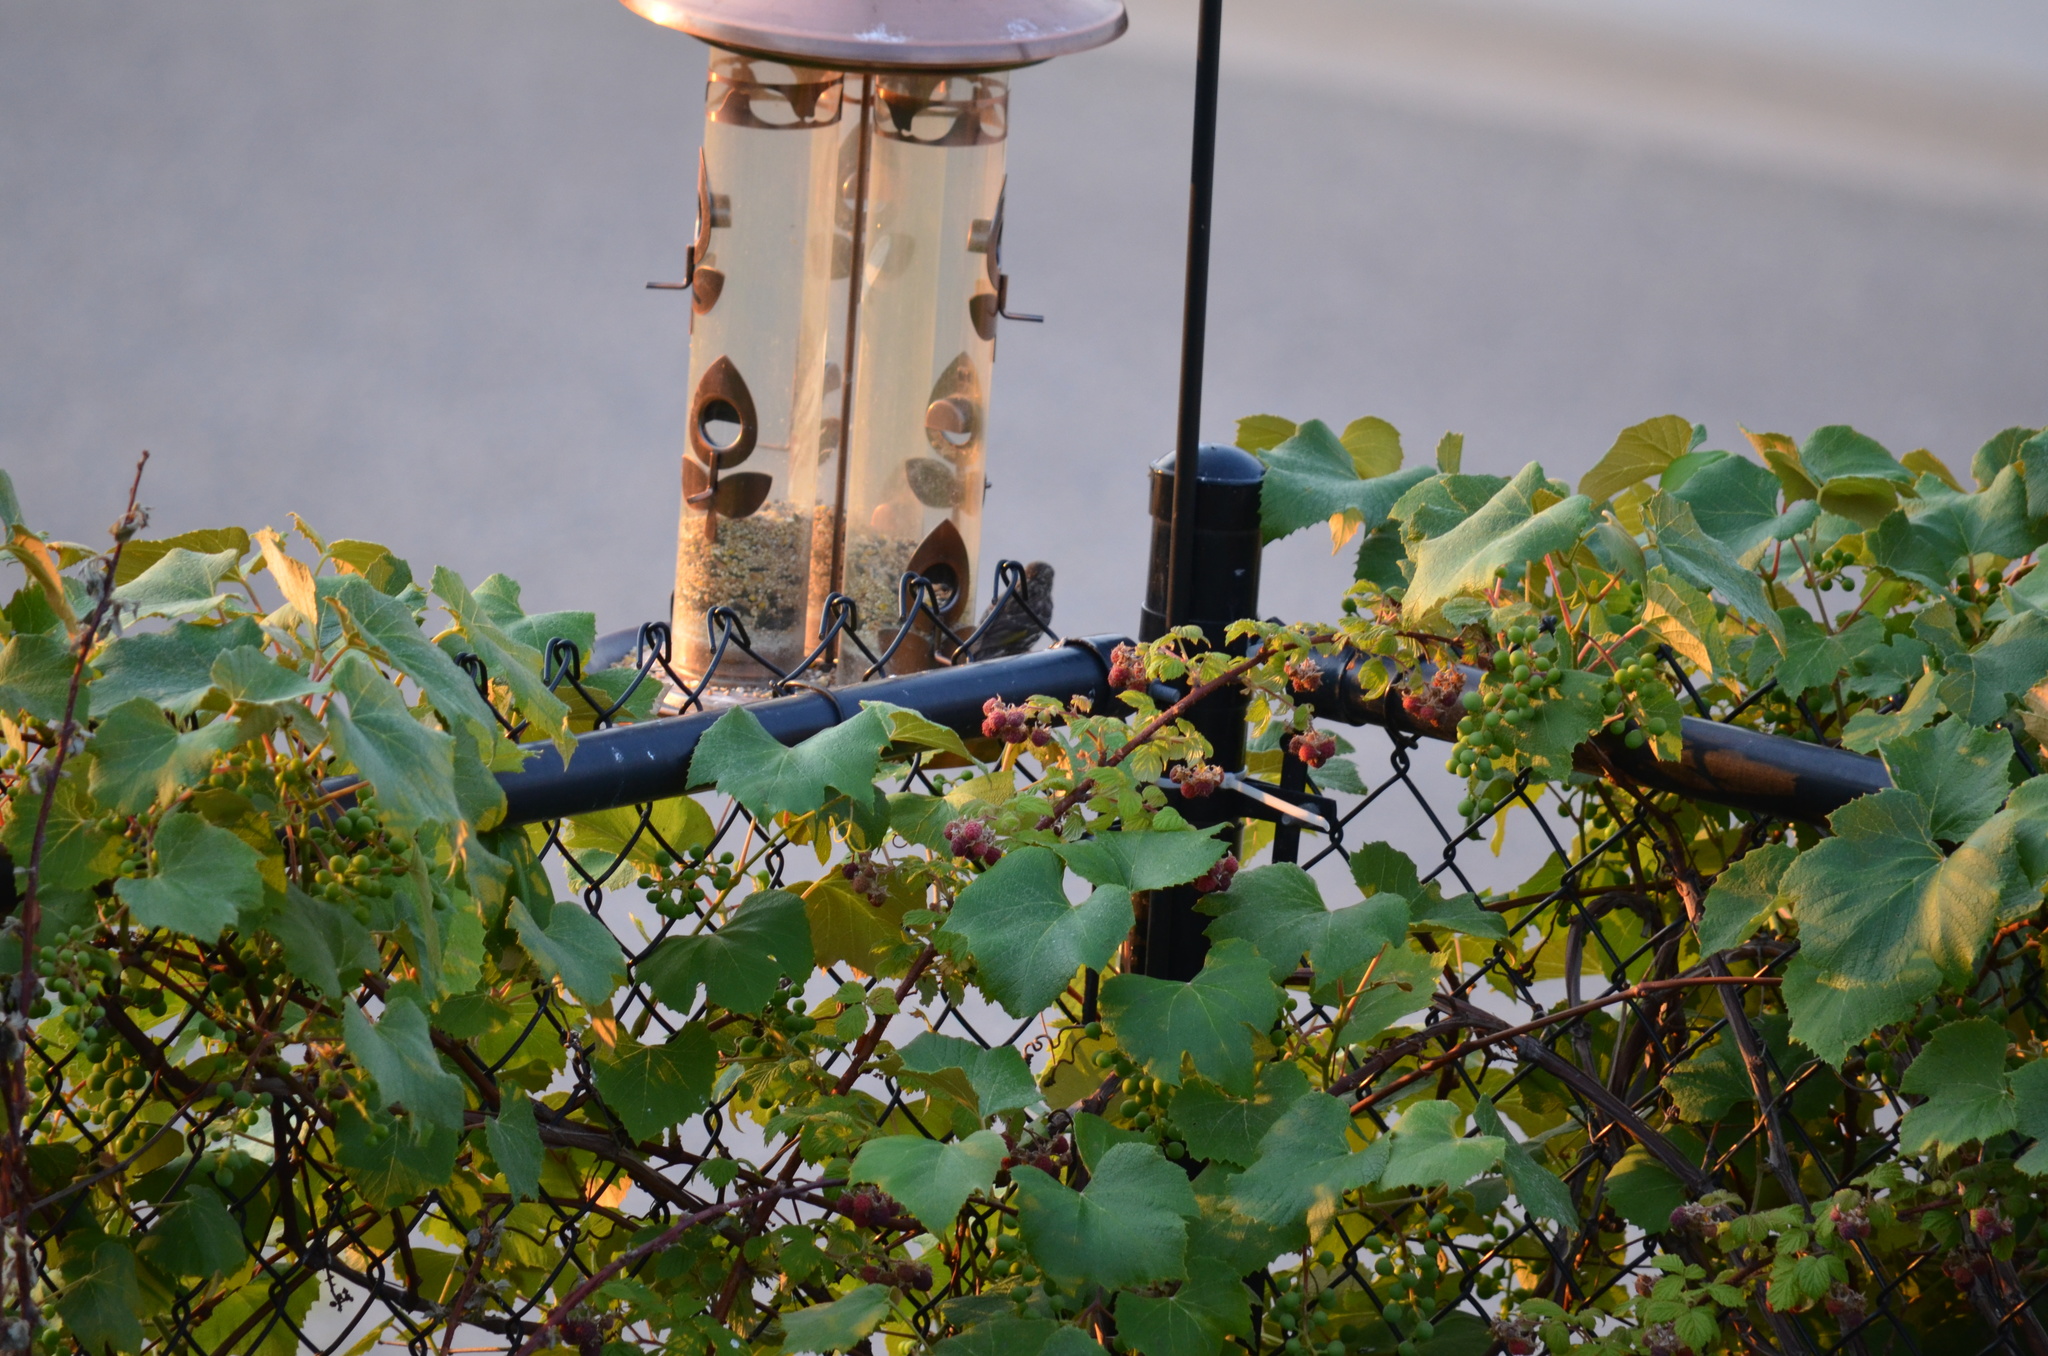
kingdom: Animalia
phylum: Chordata
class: Aves
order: Passeriformes
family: Fringillidae
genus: Spinus
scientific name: Spinus pinus
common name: Pine siskin
